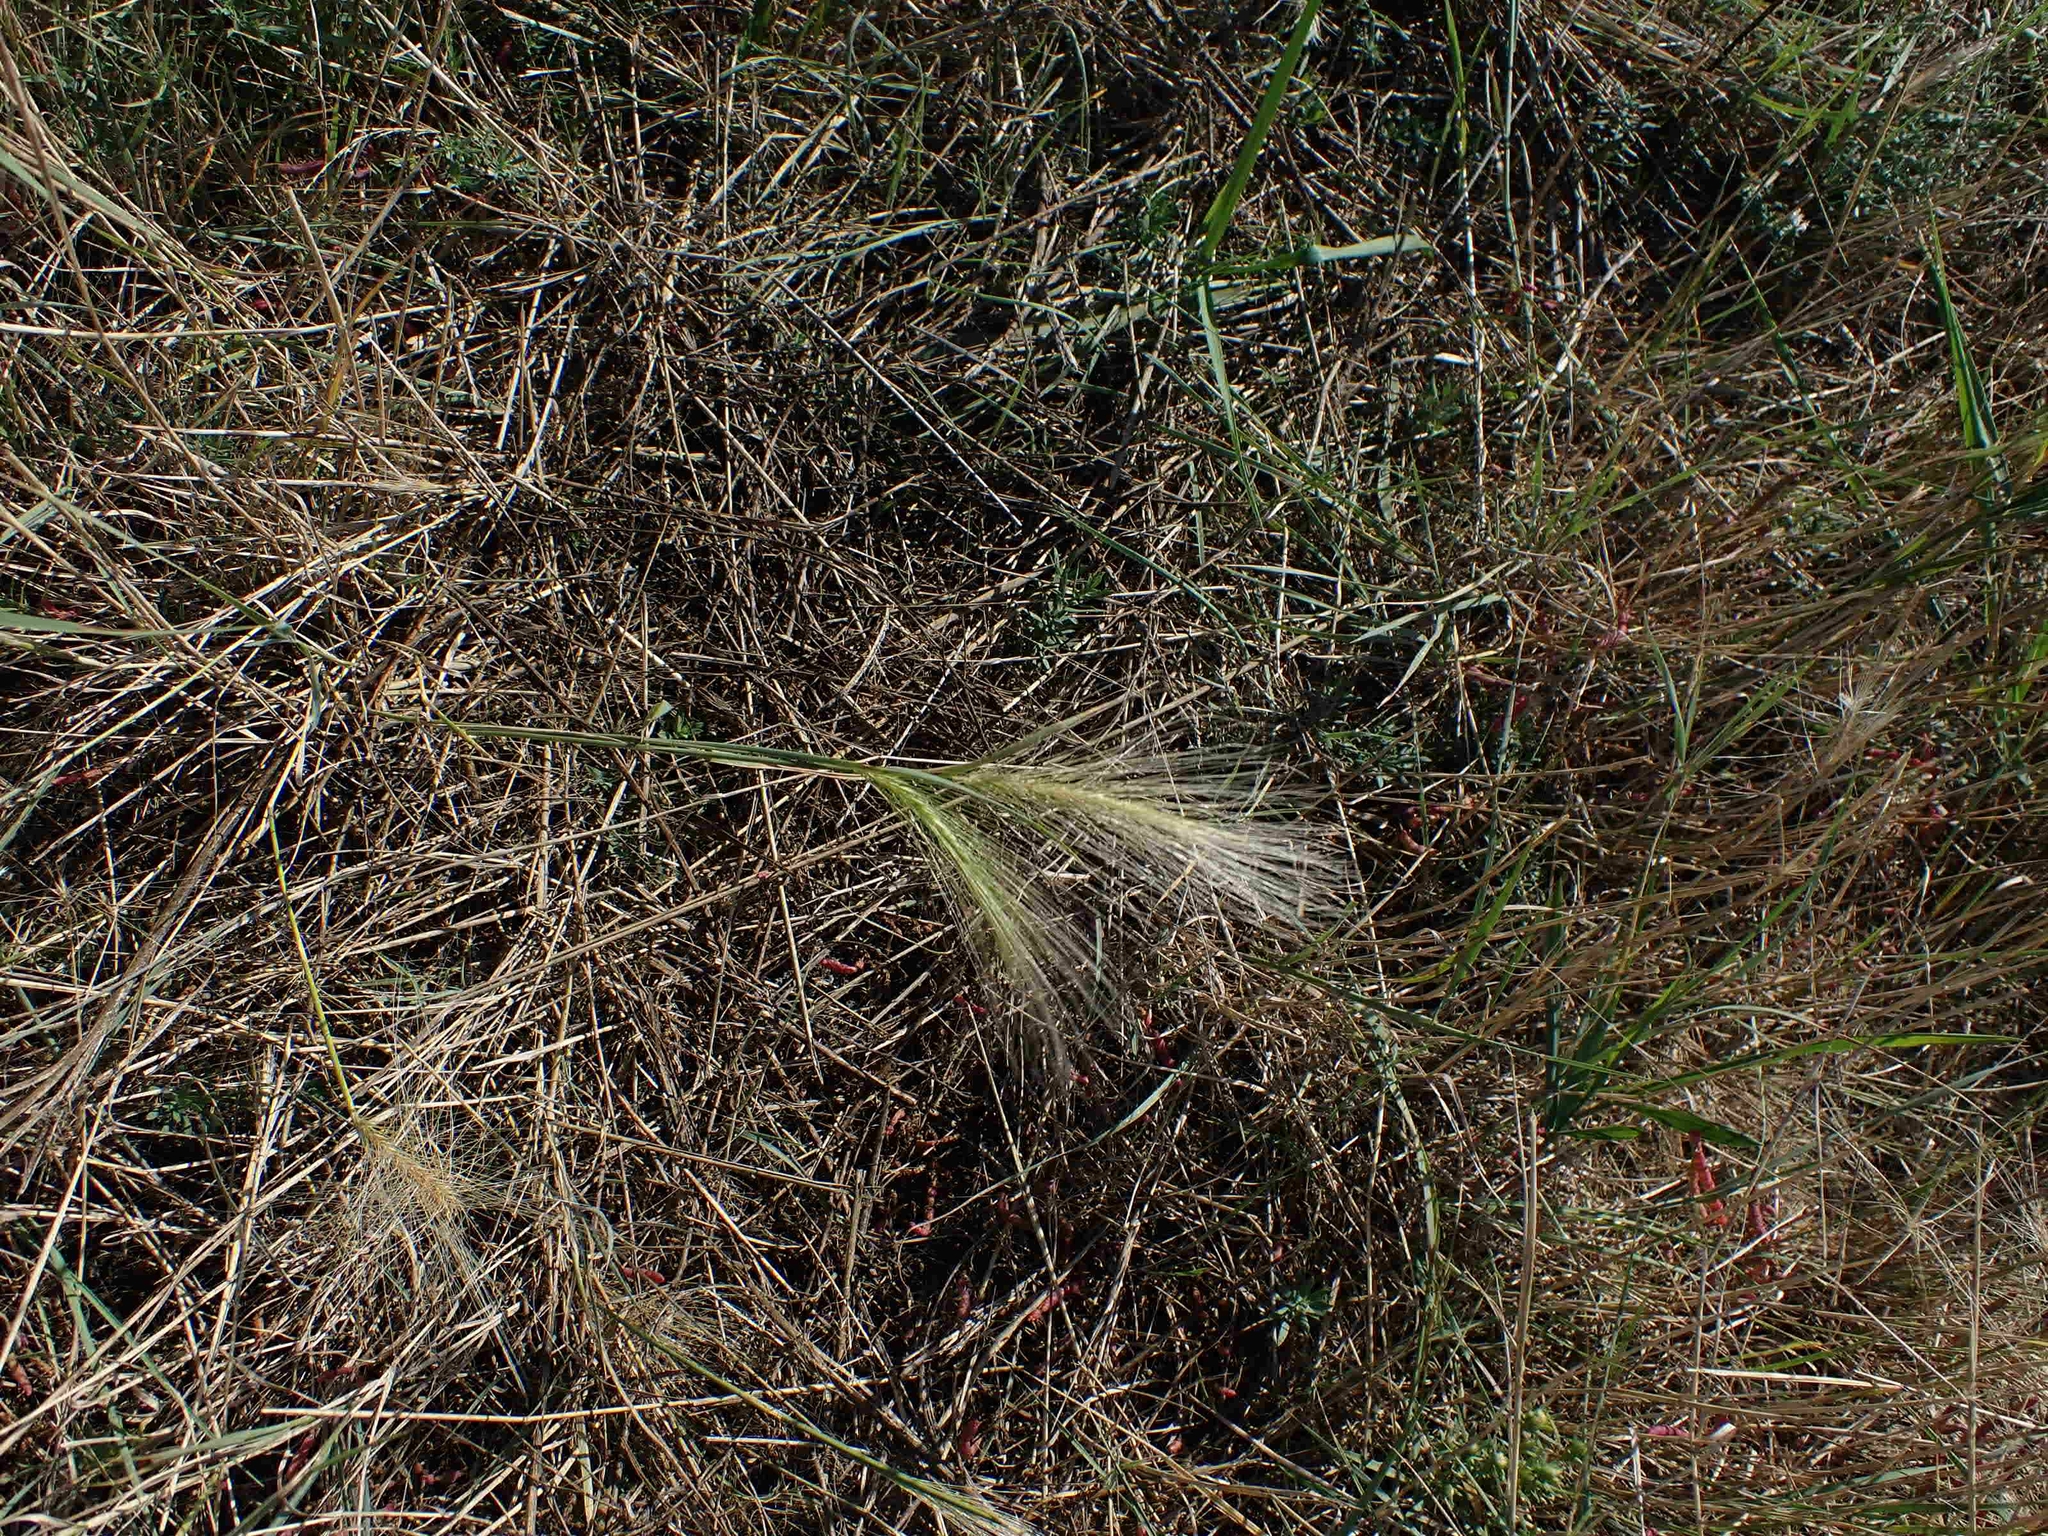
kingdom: Plantae
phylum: Tracheophyta
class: Liliopsida
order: Poales
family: Poaceae
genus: Hordeum
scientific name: Hordeum jubatum
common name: Foxtail barley
